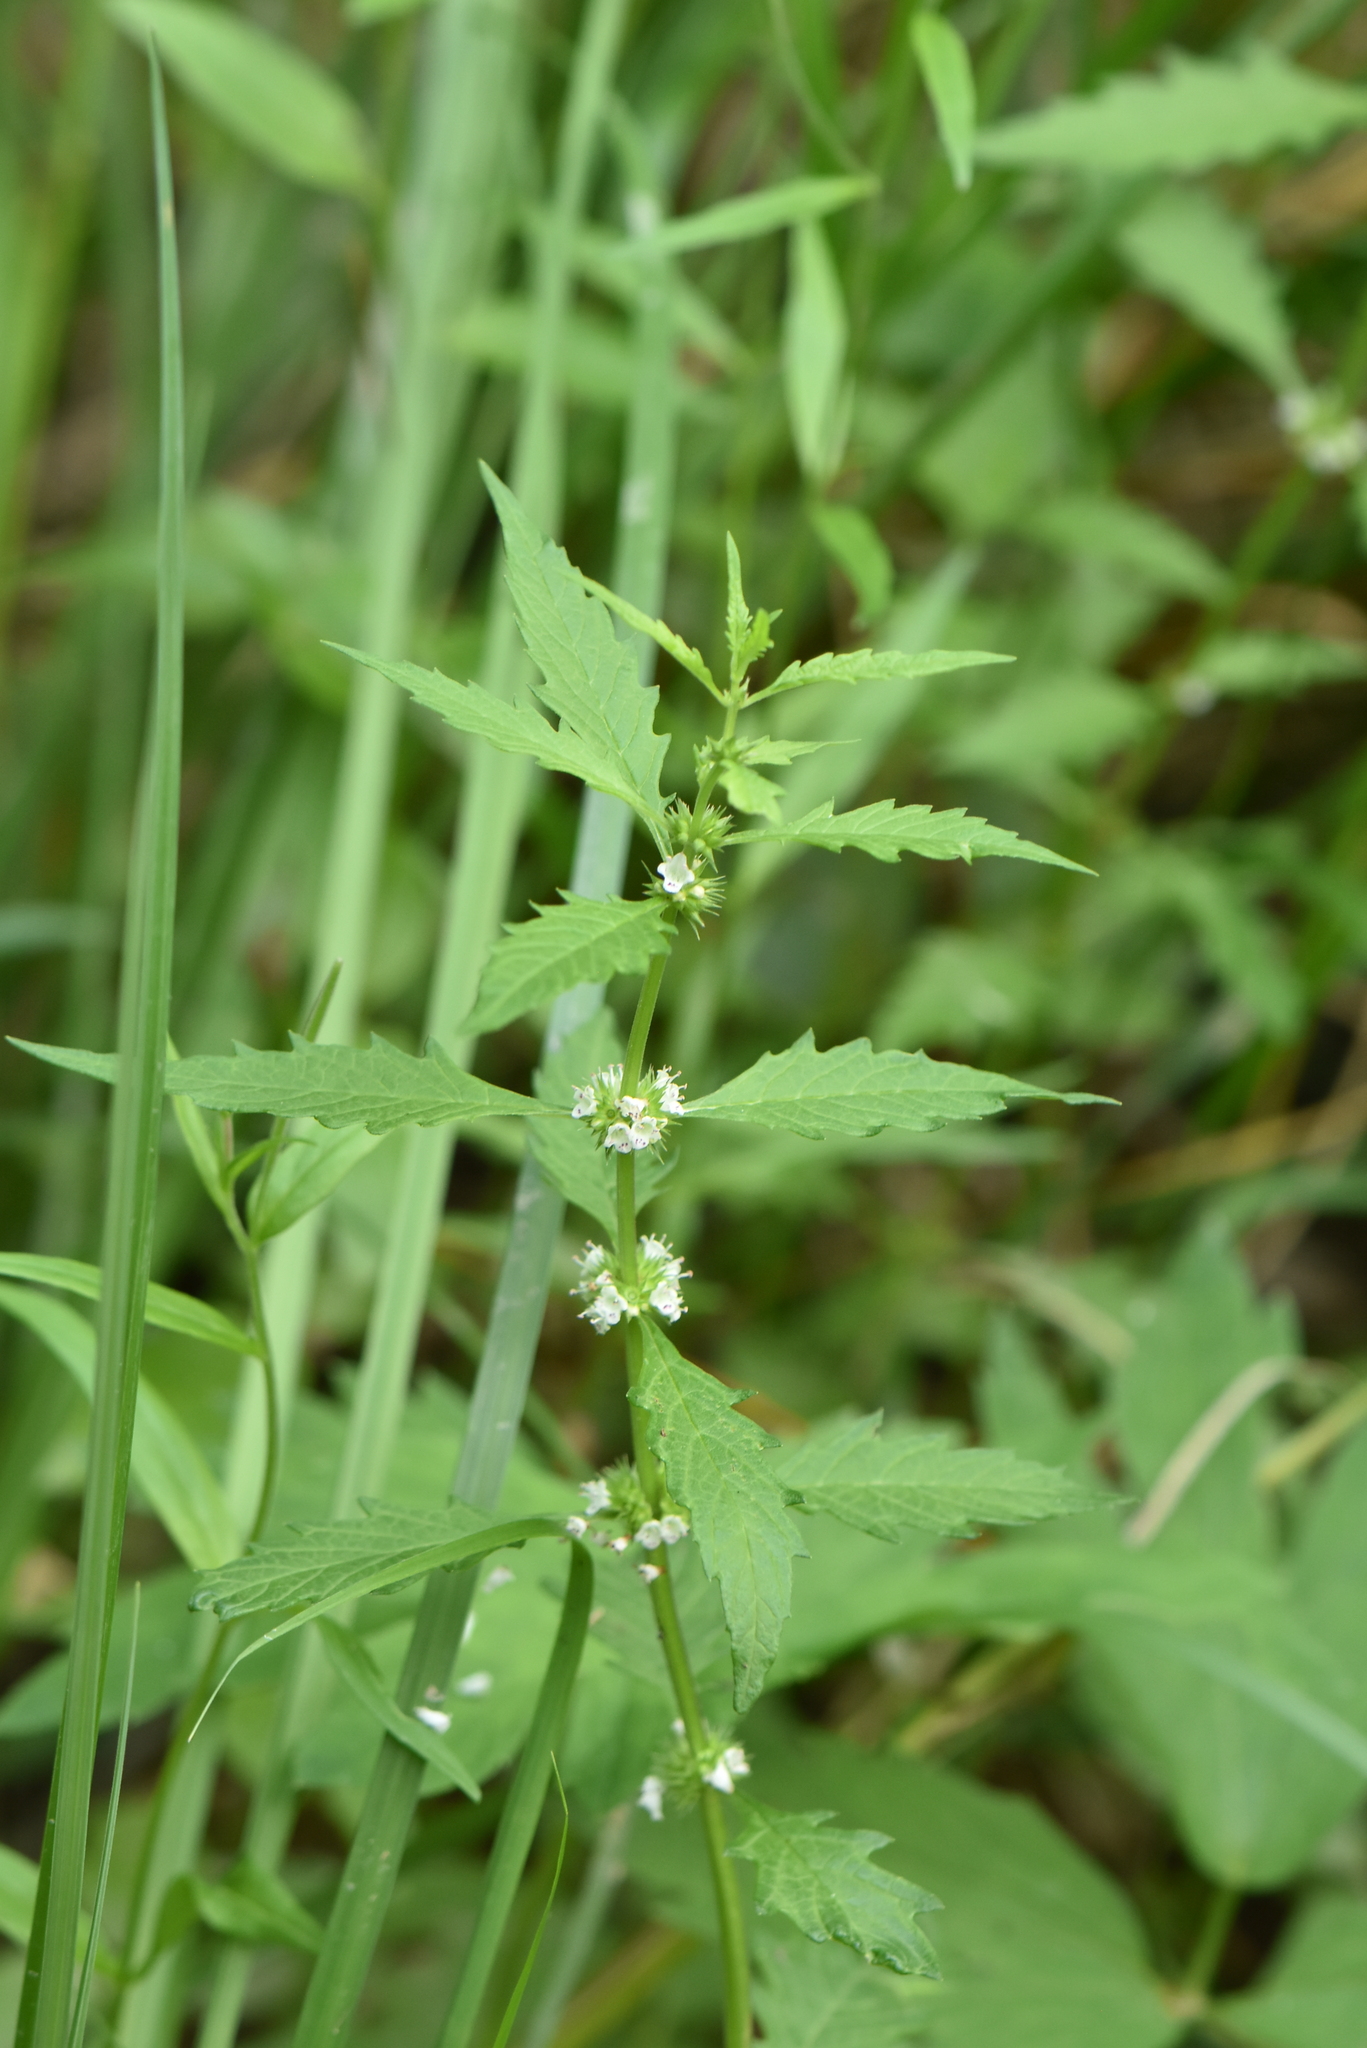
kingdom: Plantae
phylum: Tracheophyta
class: Magnoliopsida
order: Lamiales
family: Lamiaceae
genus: Lycopus
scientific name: Lycopus europaeus
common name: European bugleweed
